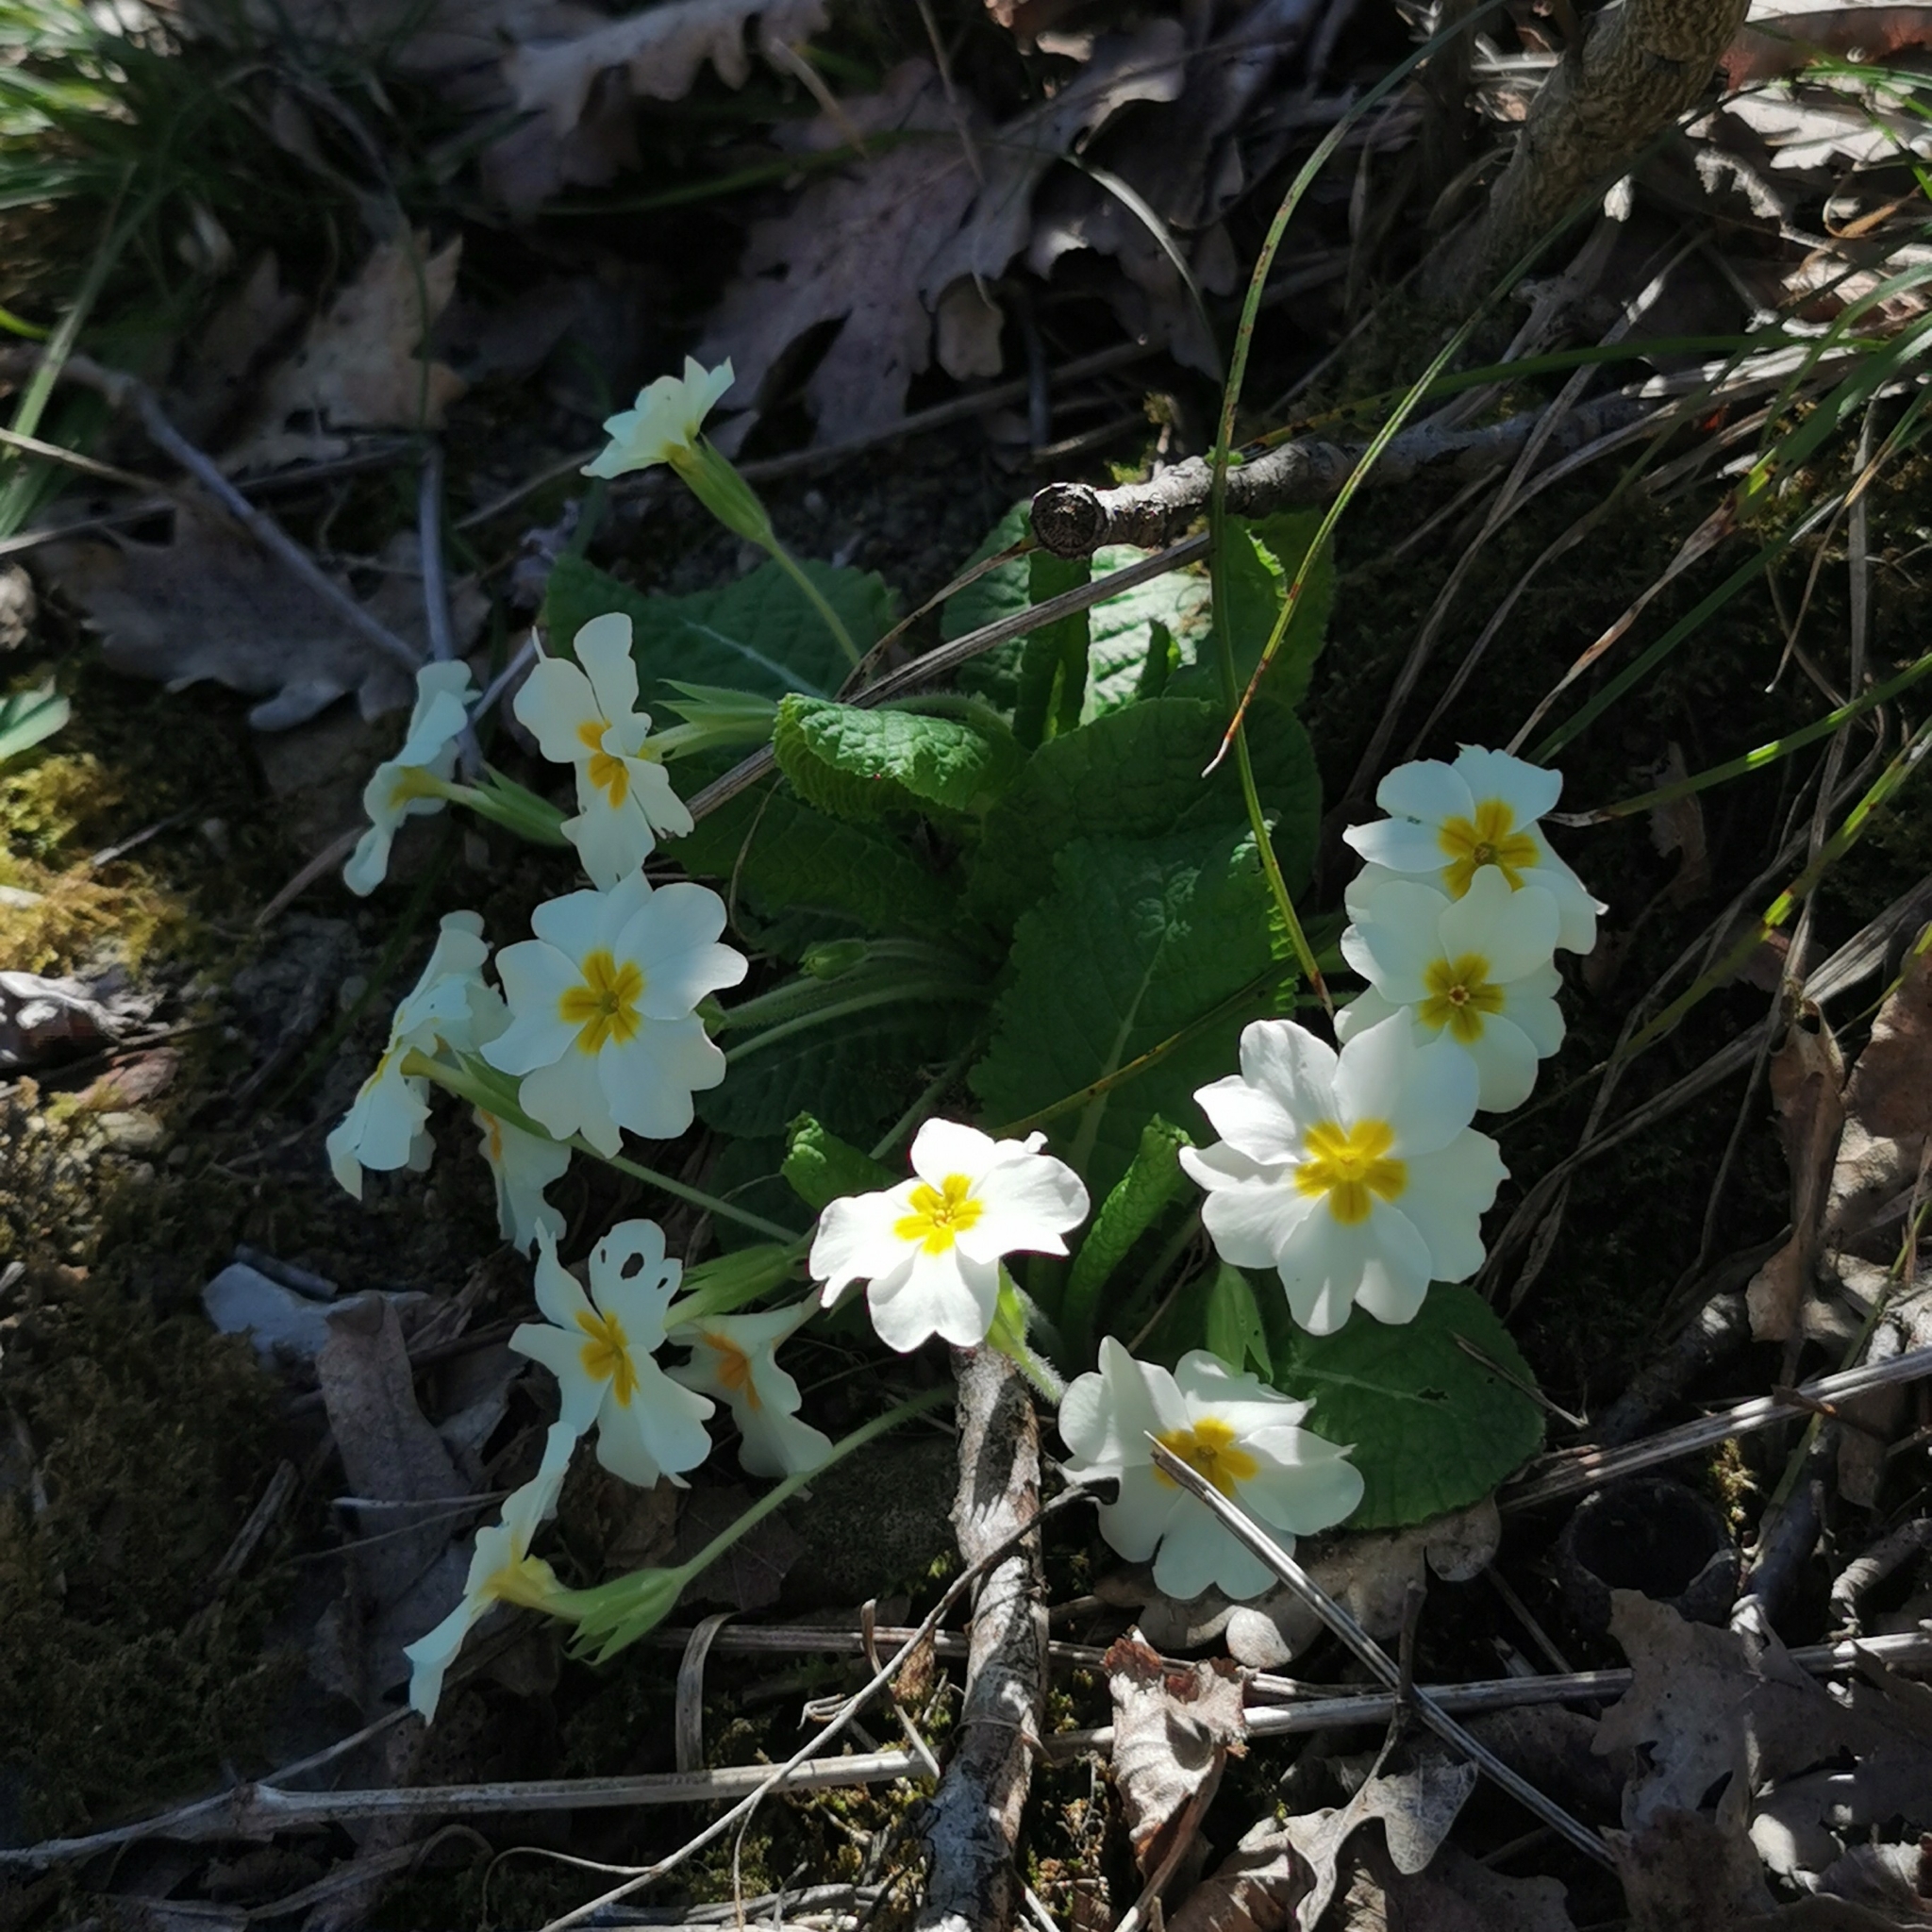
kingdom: Plantae
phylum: Tracheophyta
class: Magnoliopsida
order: Ericales
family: Primulaceae
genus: Primula
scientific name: Primula vulgaris
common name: Primrose
